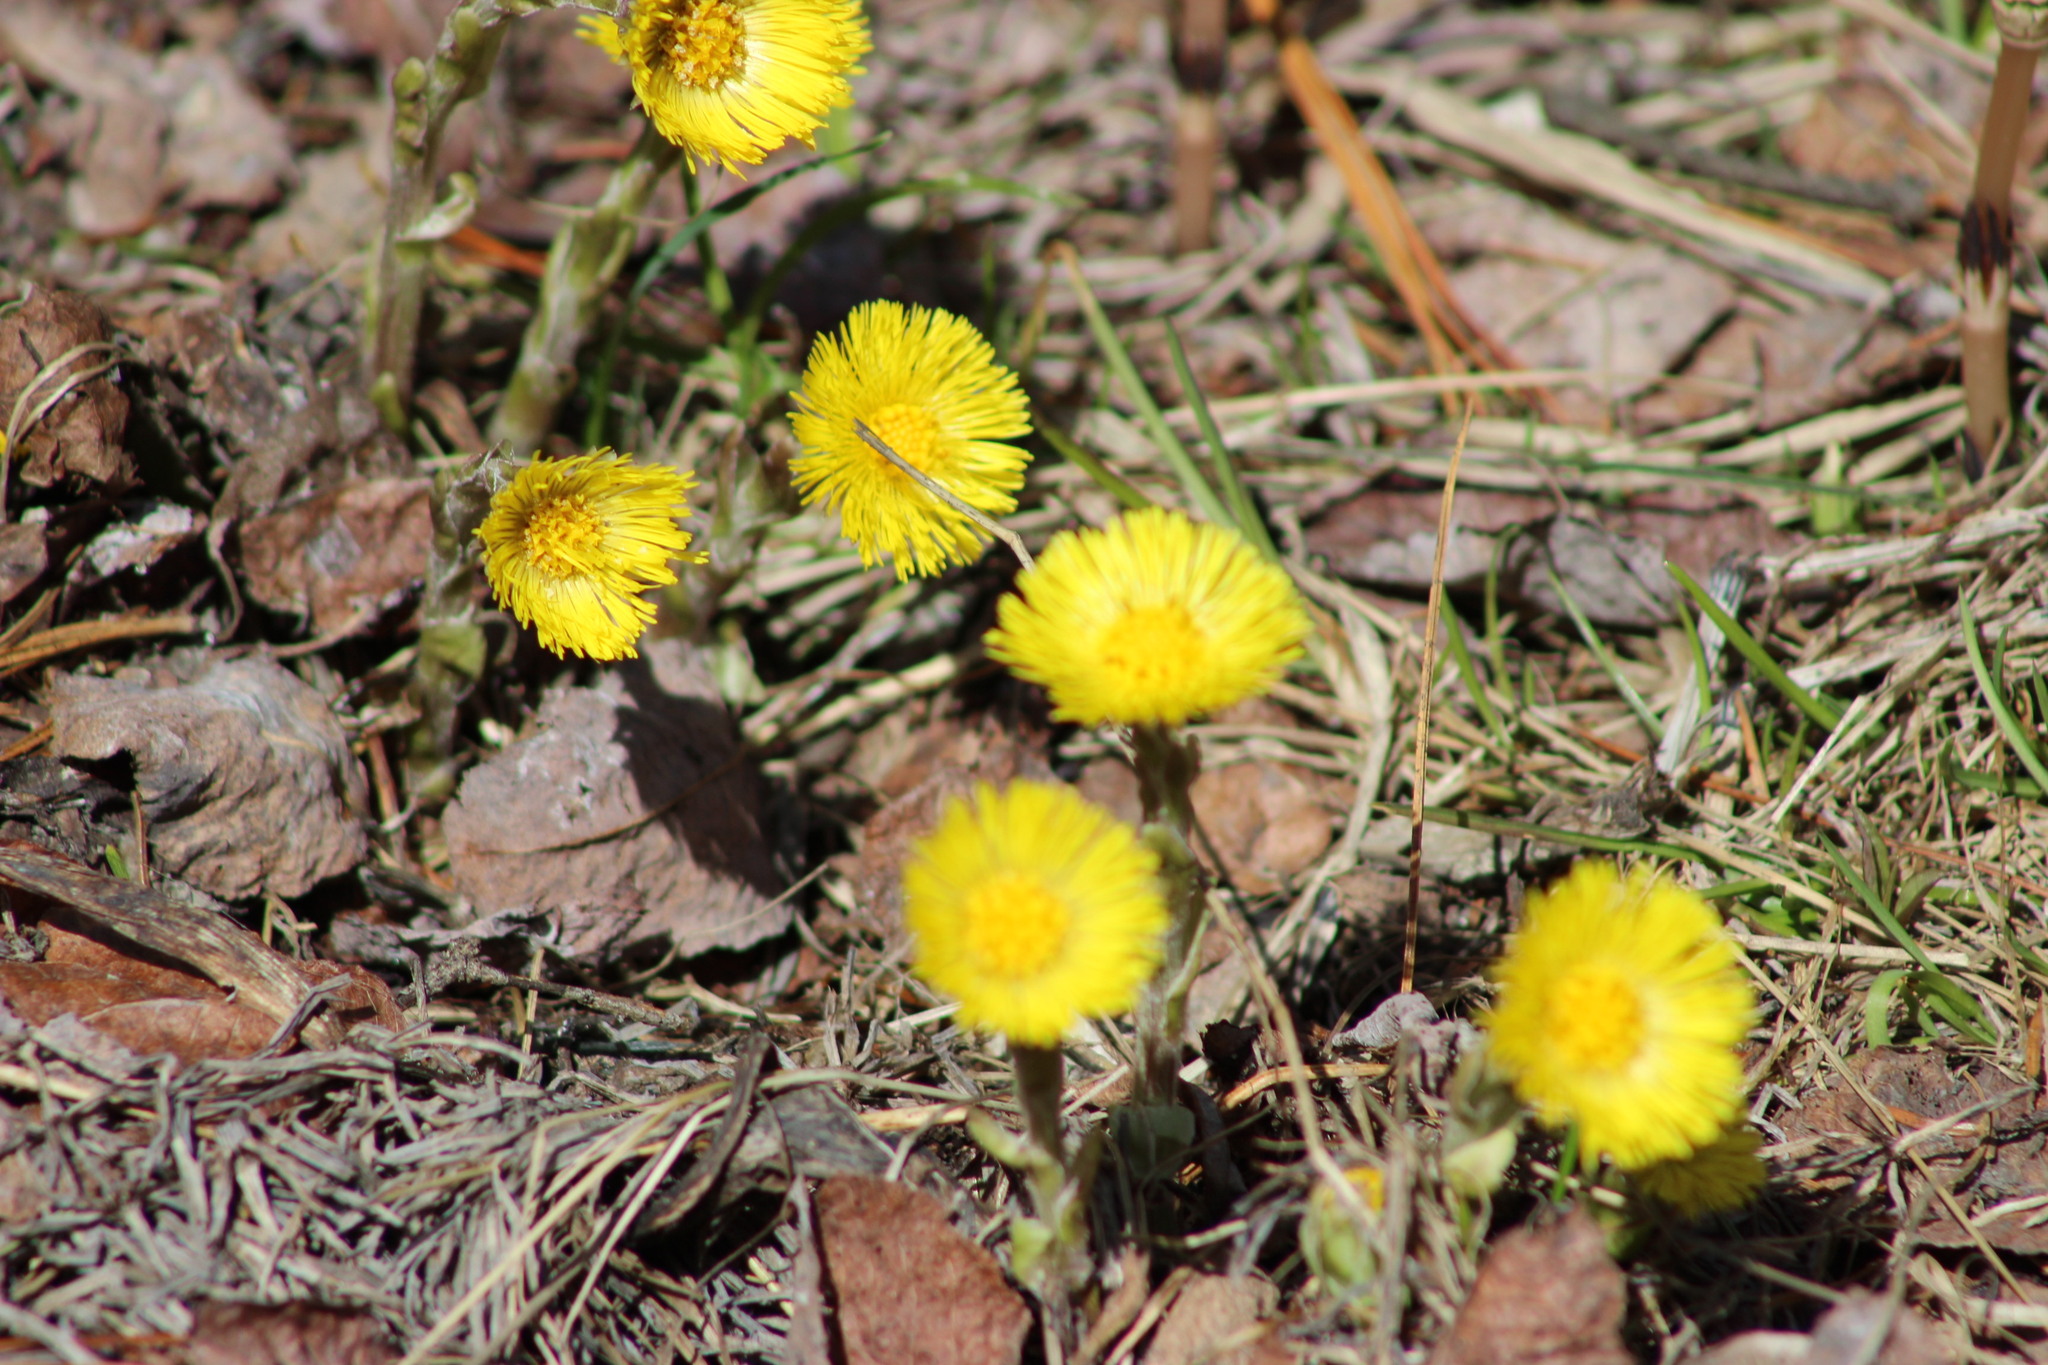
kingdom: Plantae
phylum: Tracheophyta
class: Magnoliopsida
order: Asterales
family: Asteraceae
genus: Tussilago
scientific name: Tussilago farfara
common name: Coltsfoot
